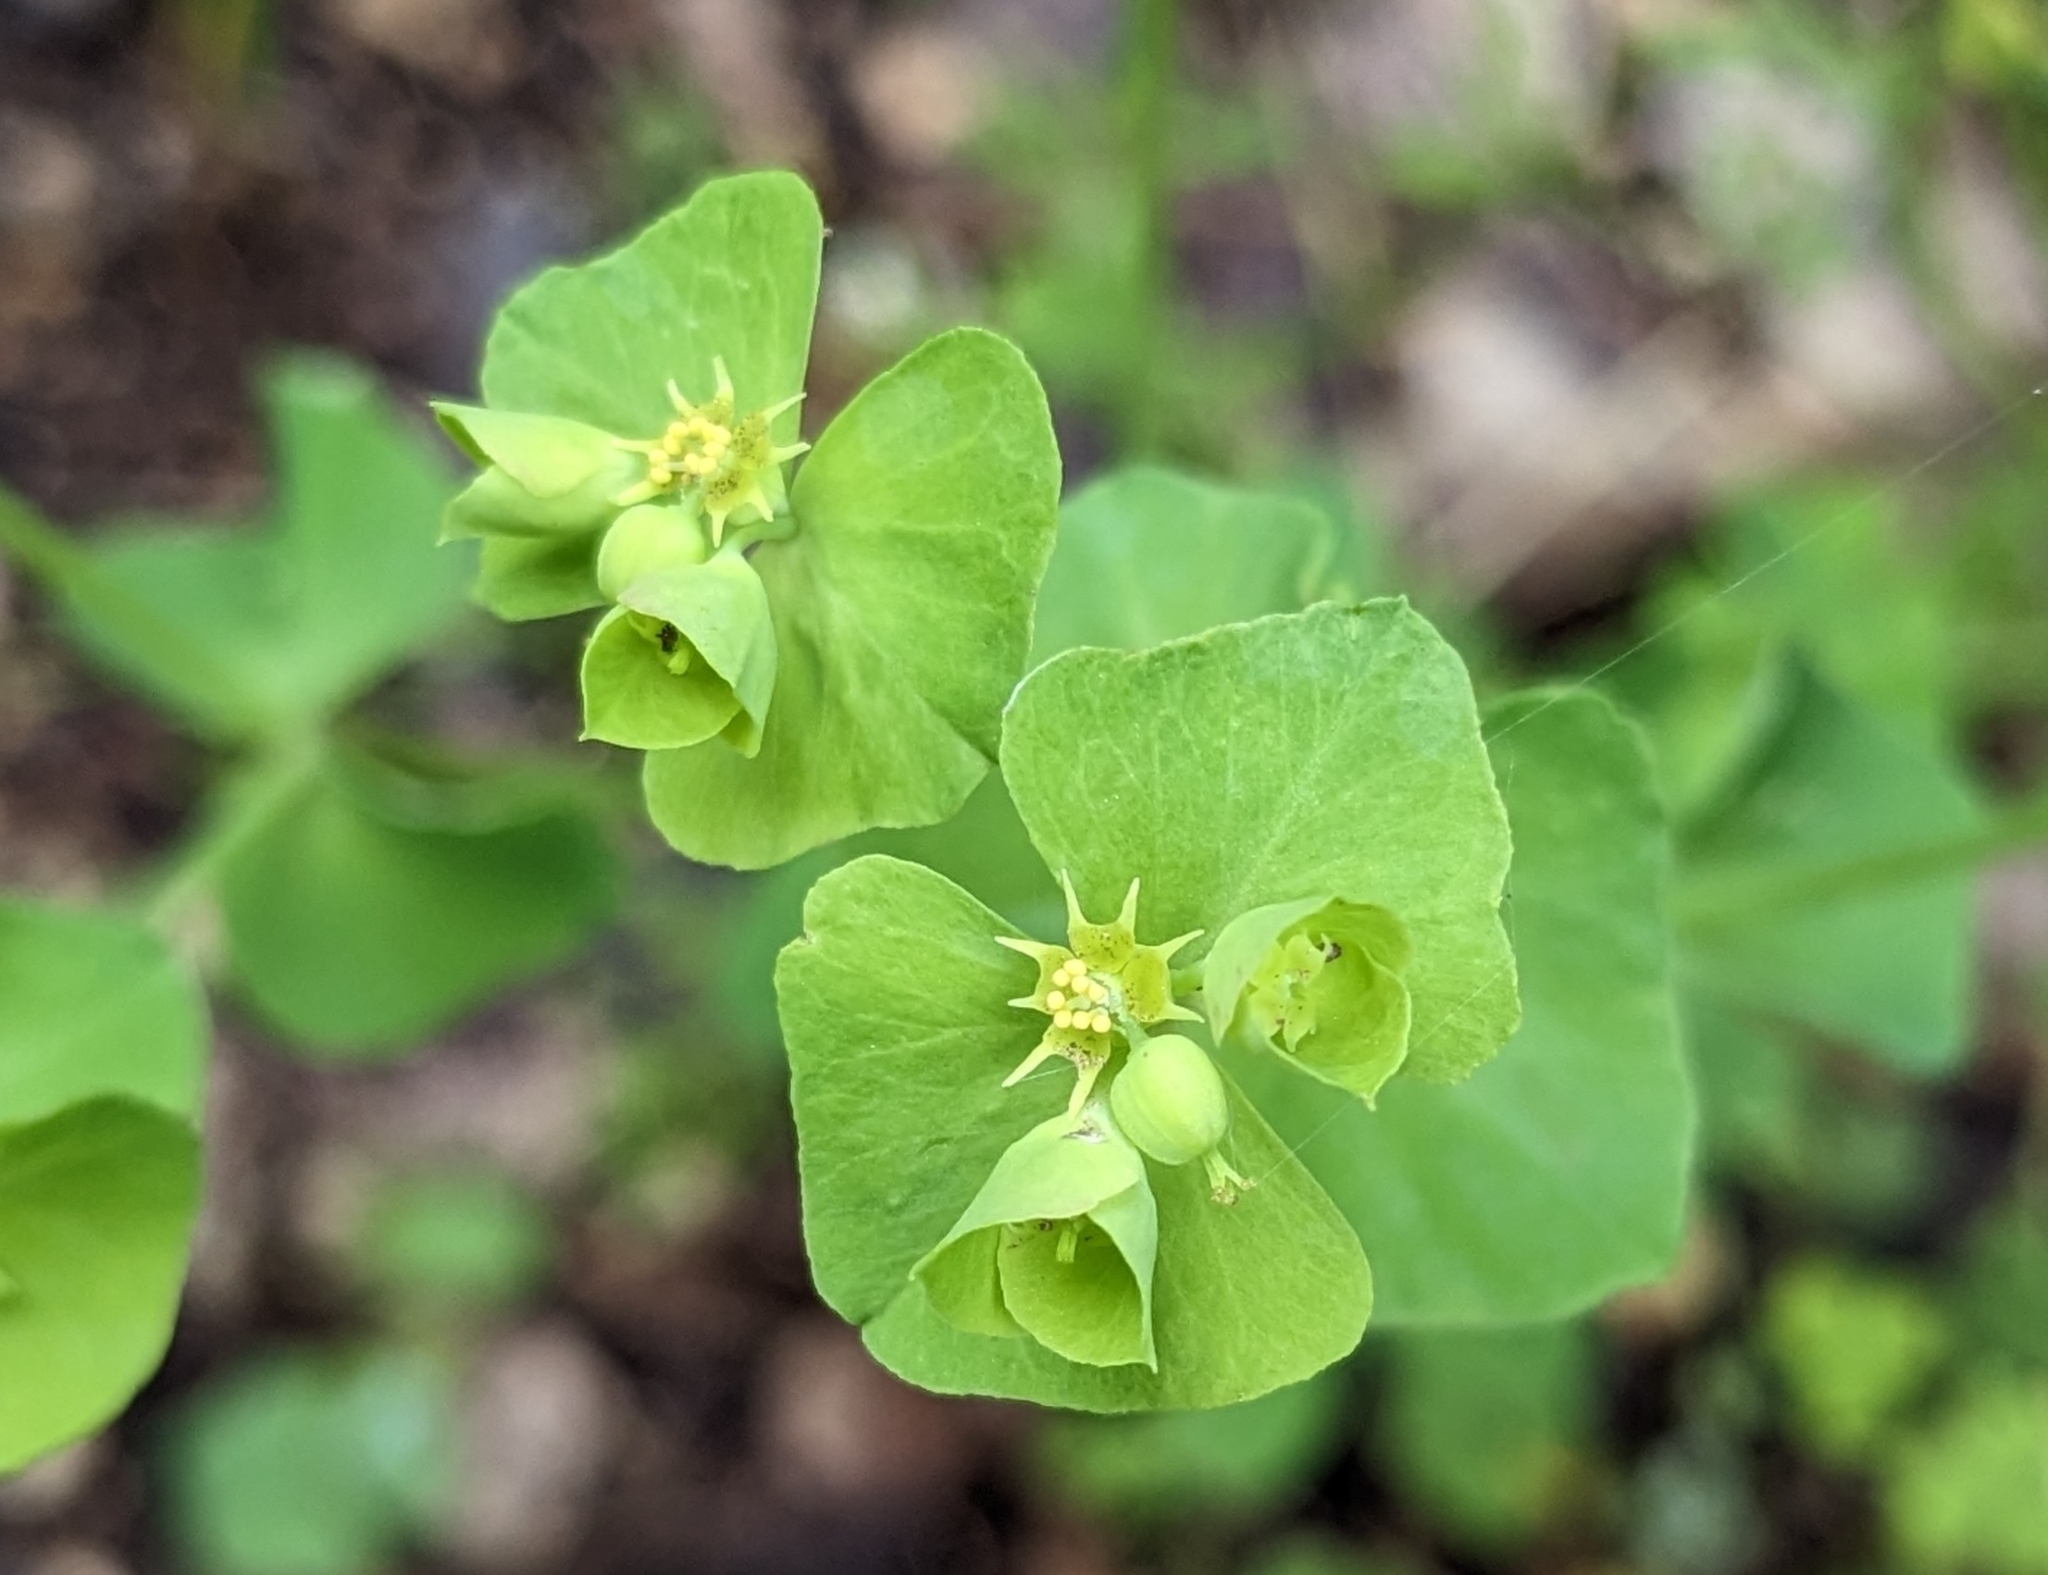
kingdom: Plantae
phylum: Tracheophyta
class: Magnoliopsida
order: Malpighiales
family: Euphorbiaceae
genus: Euphorbia
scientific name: Euphorbia commutata
